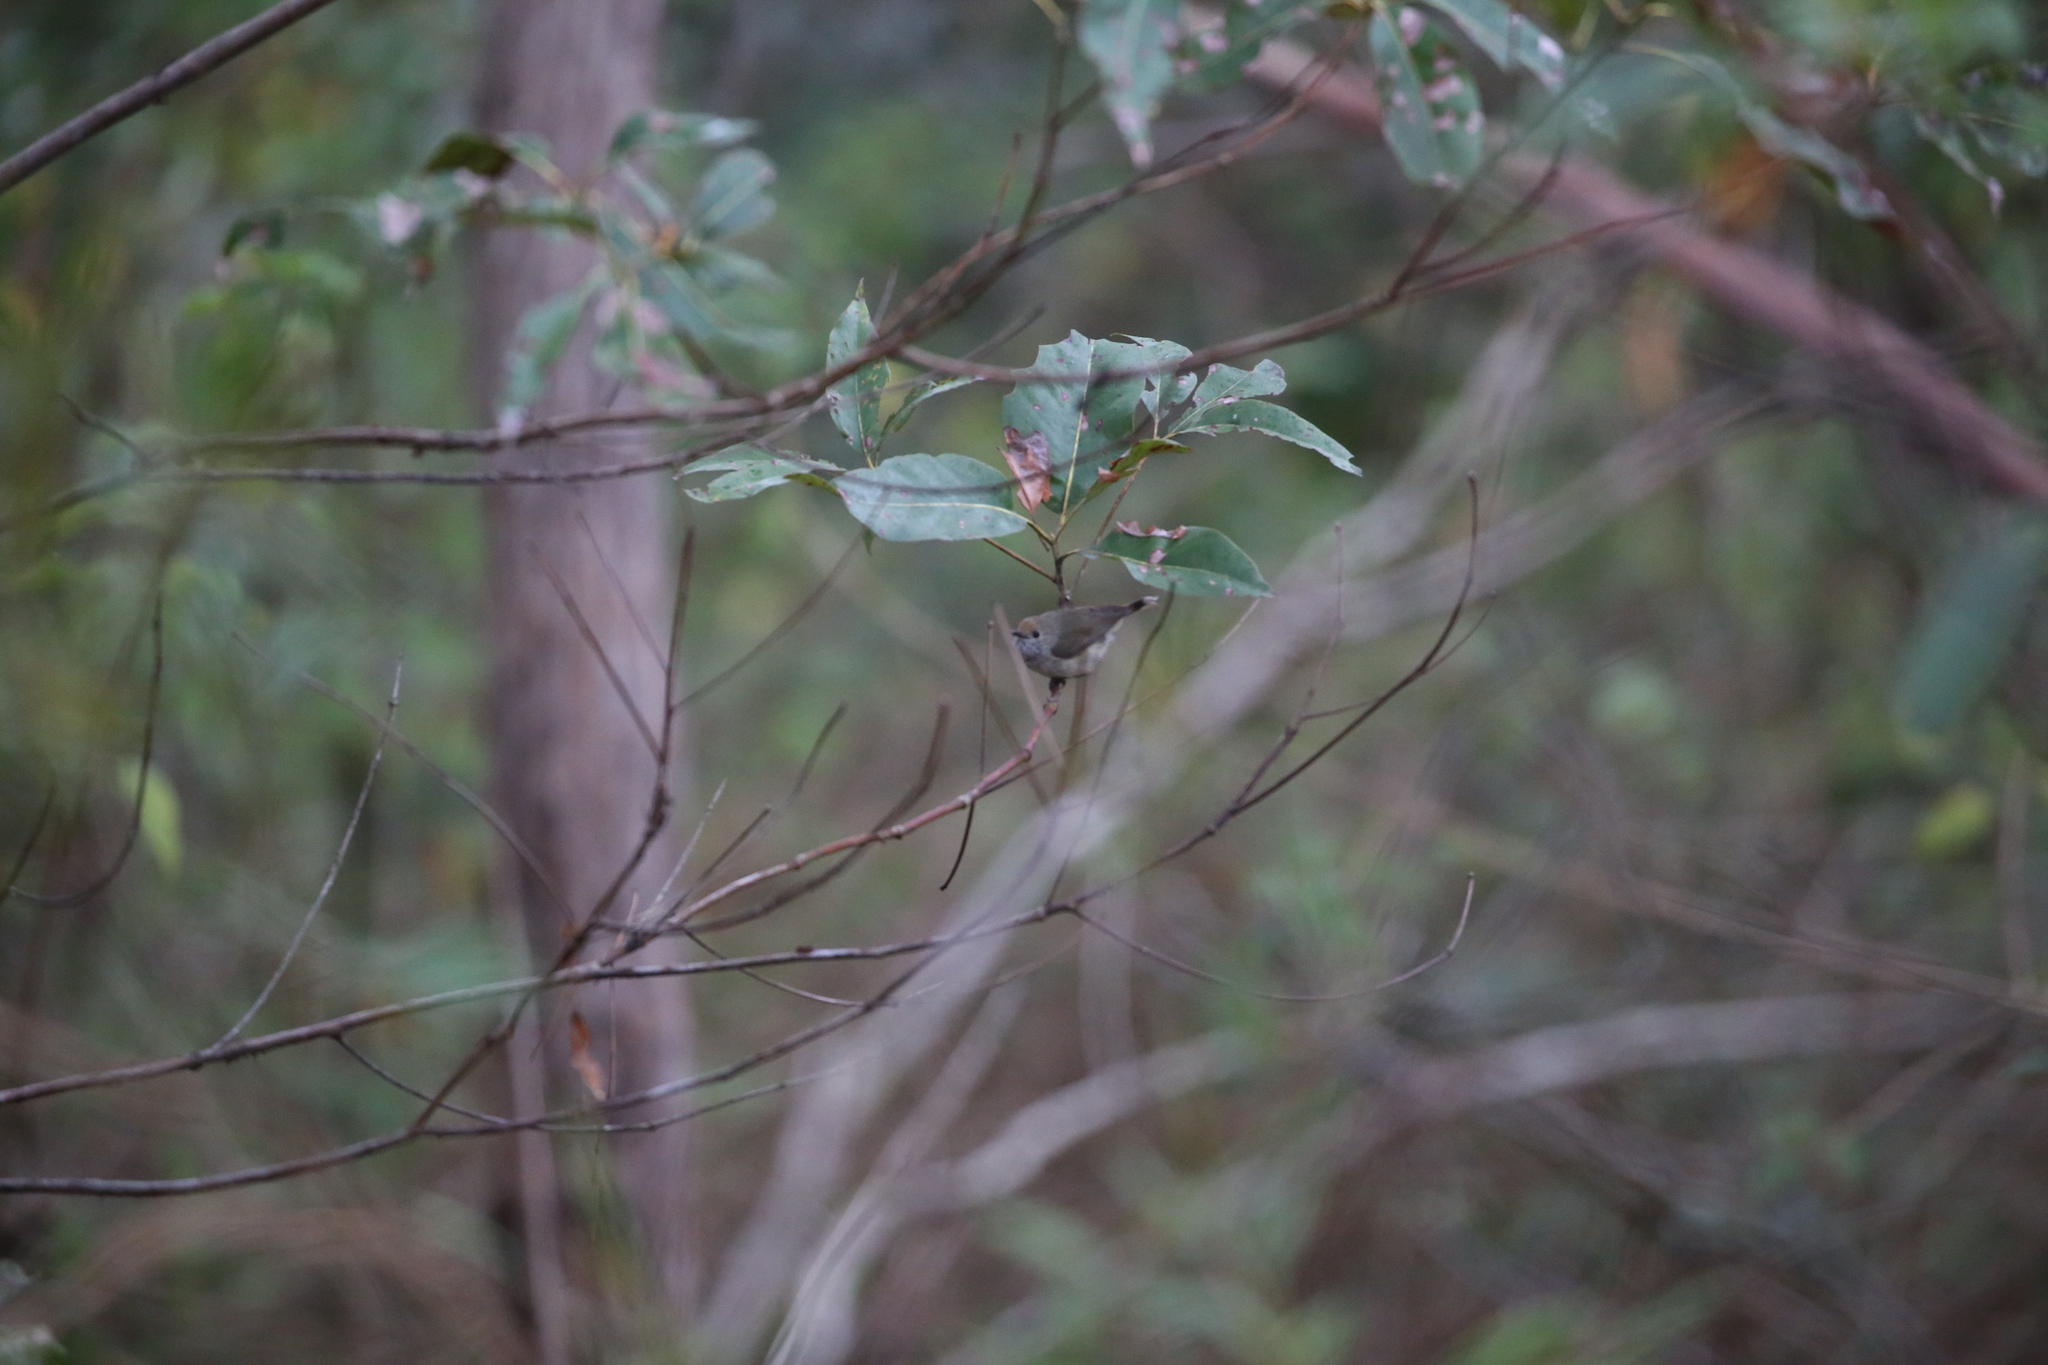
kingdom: Animalia
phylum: Chordata
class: Aves
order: Passeriformes
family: Acanthizidae
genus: Acanthiza
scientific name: Acanthiza pusilla
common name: Brown thornbill
